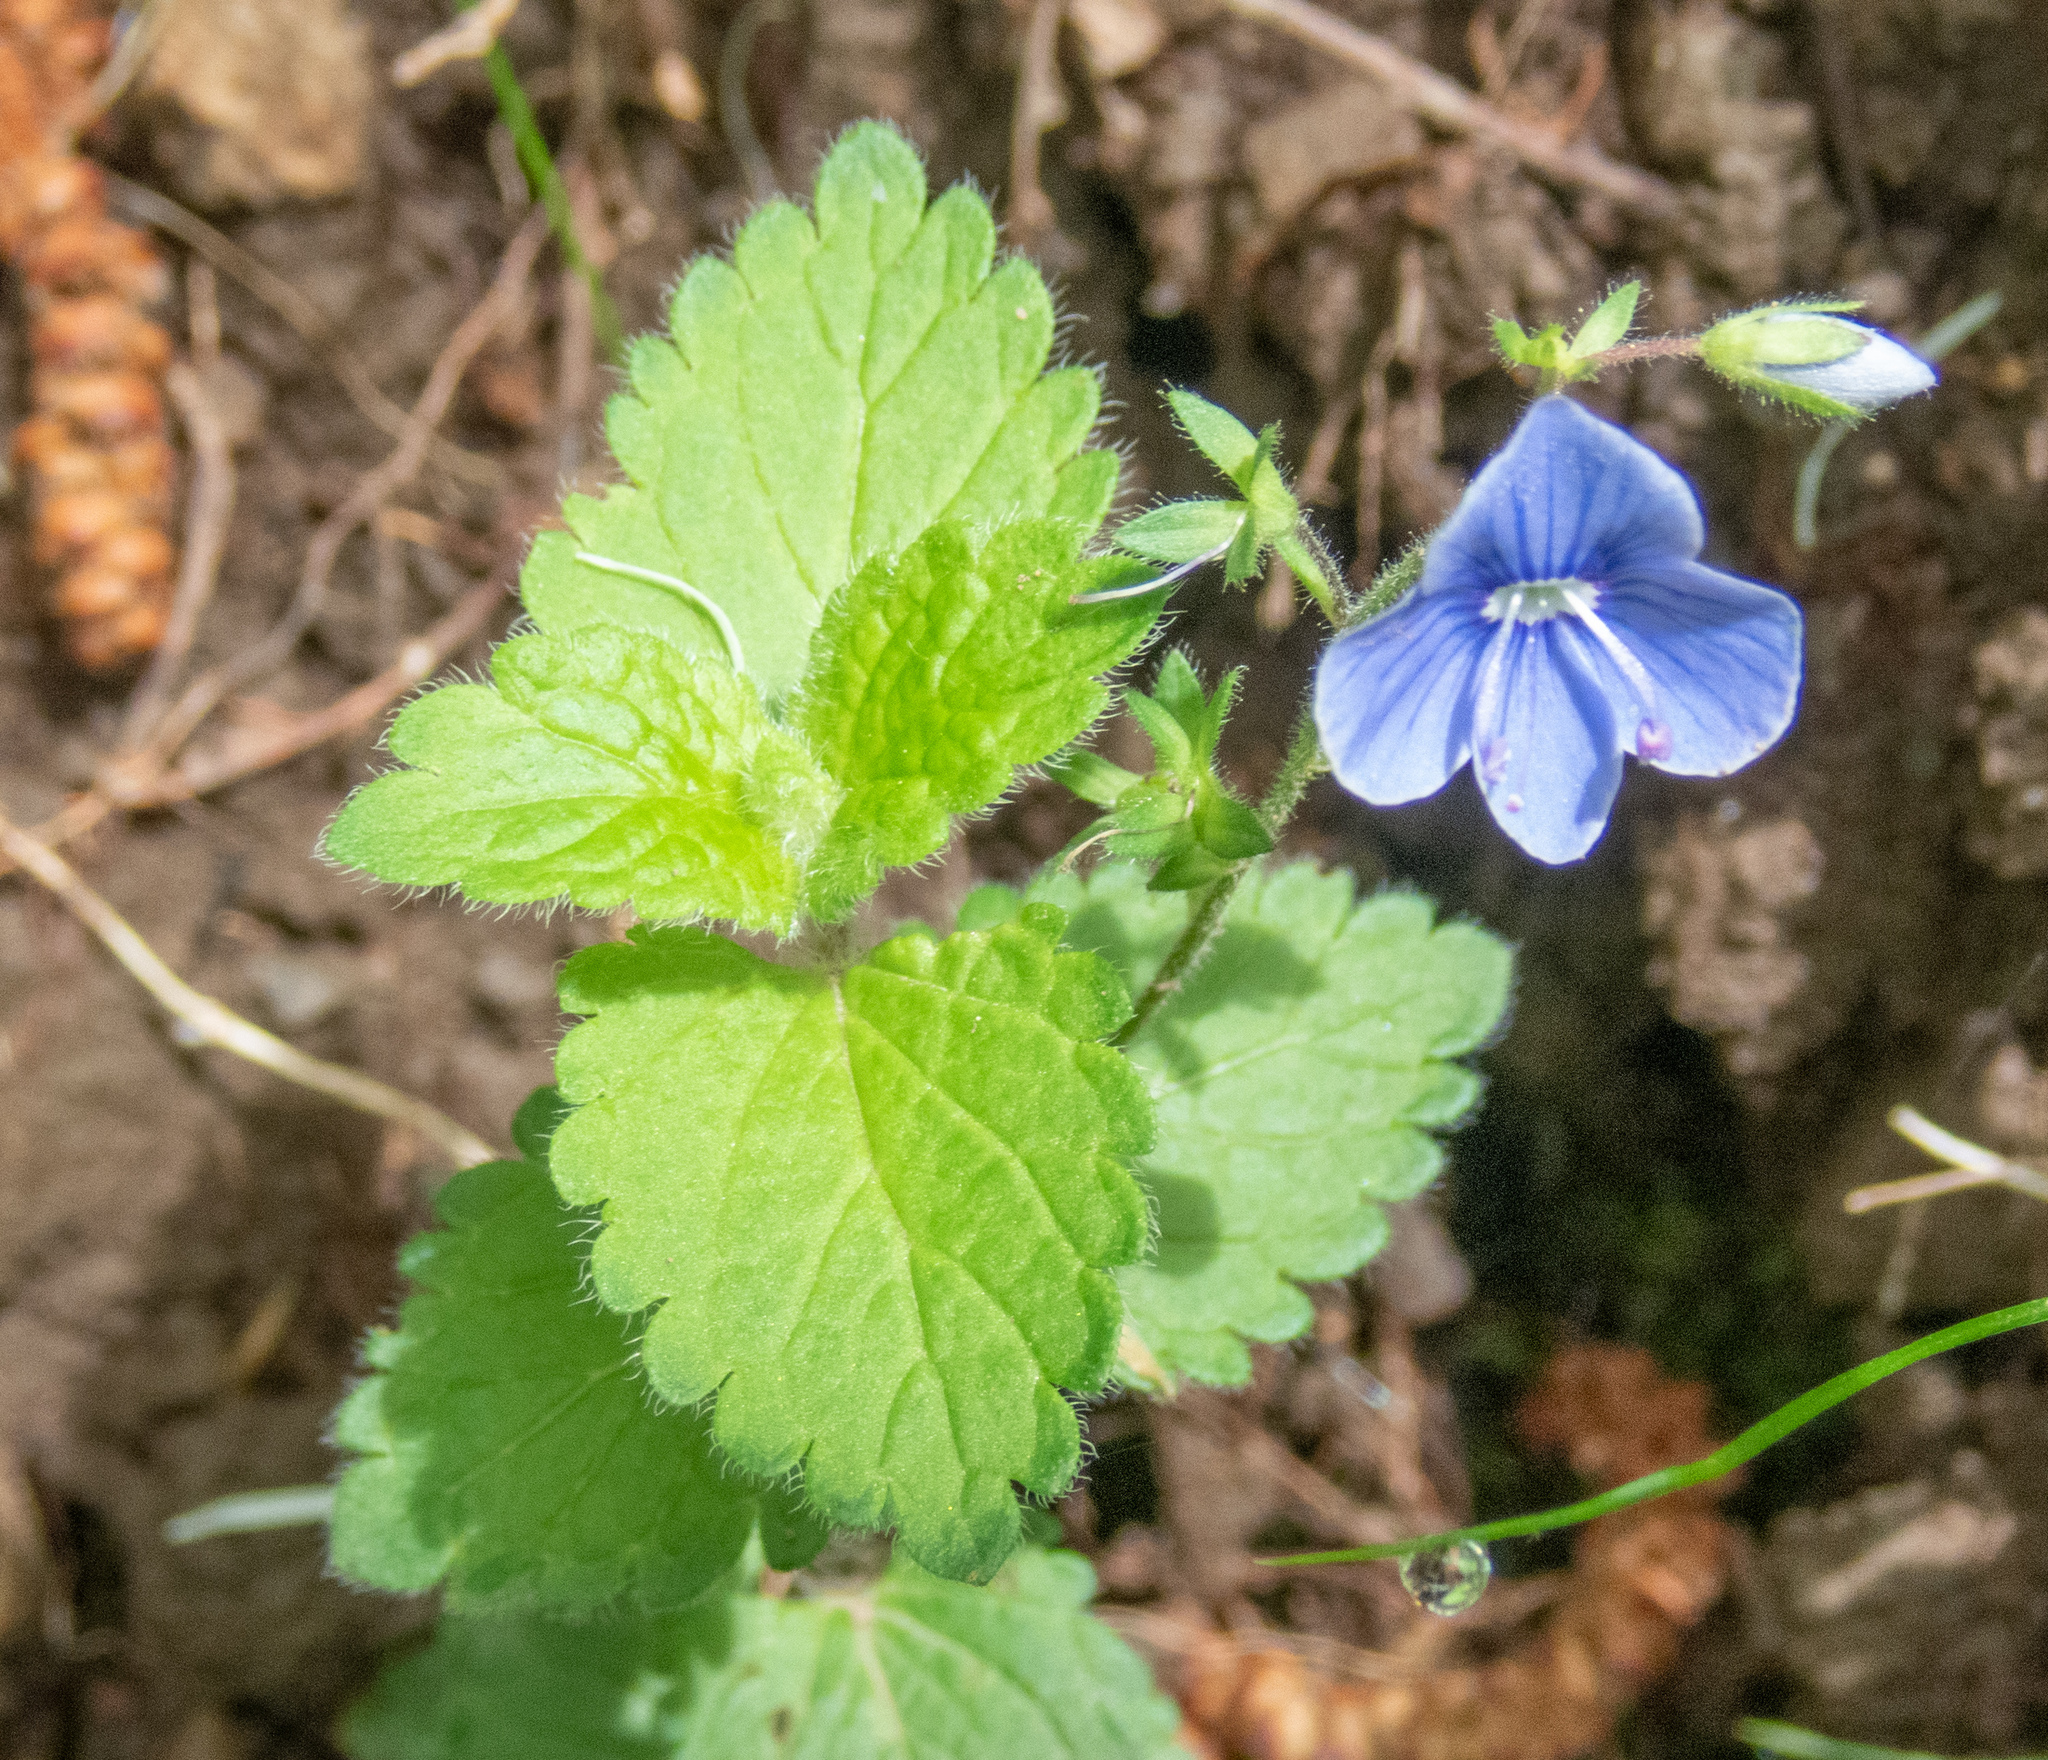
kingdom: Plantae
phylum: Tracheophyta
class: Magnoliopsida
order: Lamiales
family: Plantaginaceae
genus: Veronica
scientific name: Veronica chamaedrys
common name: Germander speedwell
